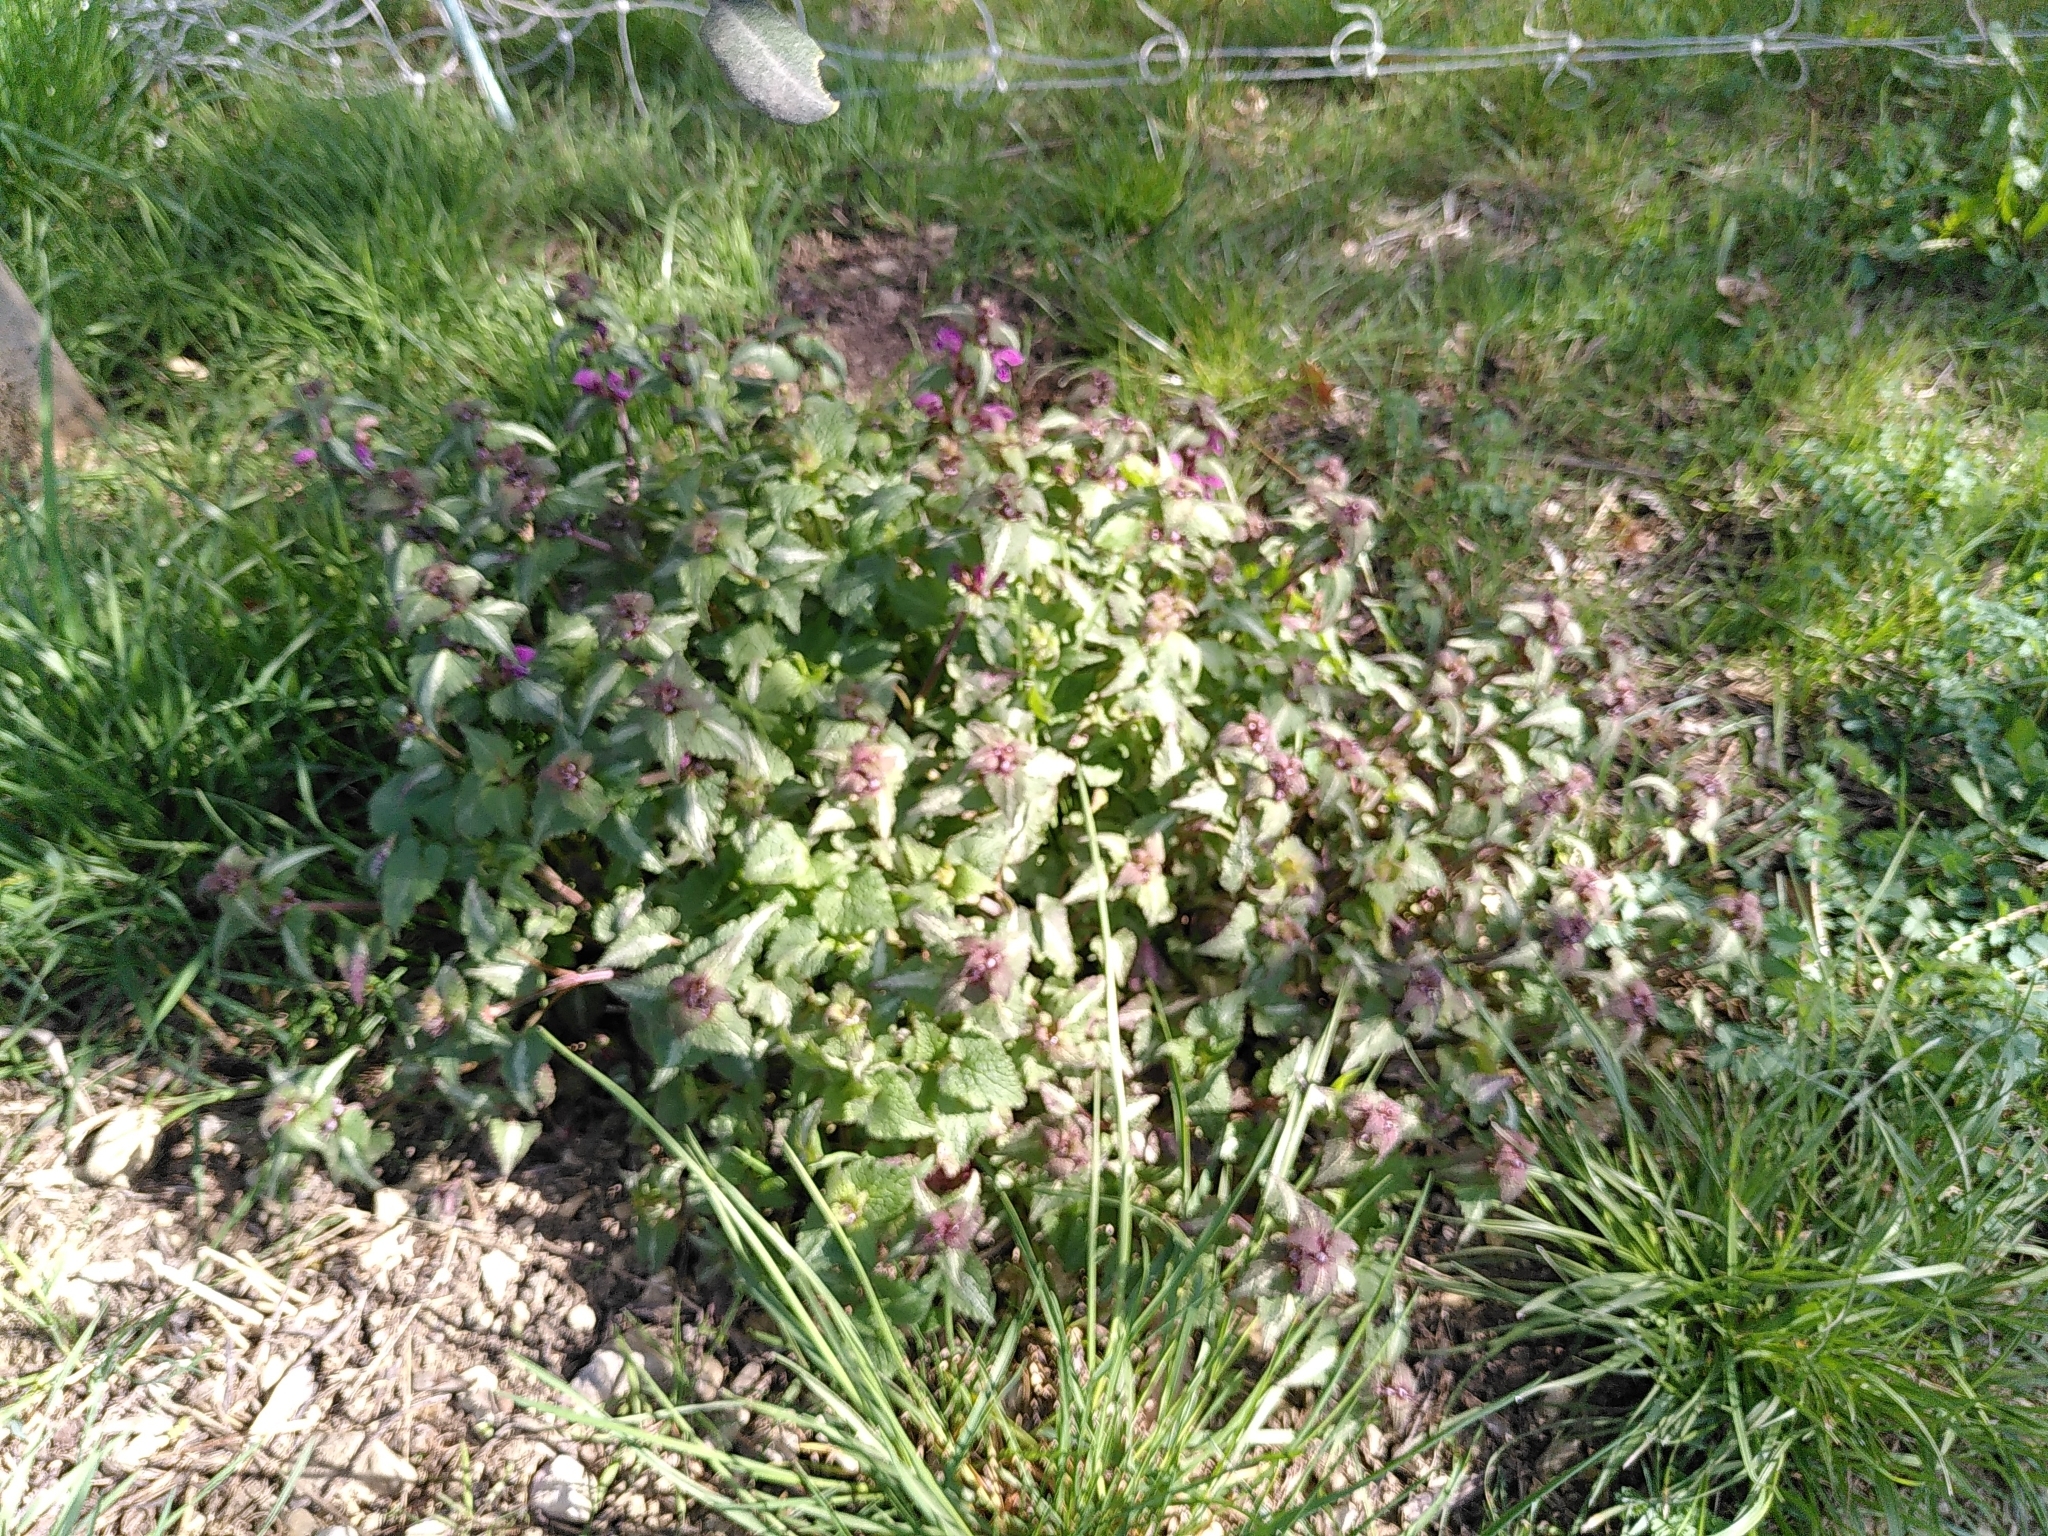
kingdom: Plantae
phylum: Tracheophyta
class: Magnoliopsida
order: Lamiales
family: Lamiaceae
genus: Lamium
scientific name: Lamium maculatum
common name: Spotted dead-nettle
